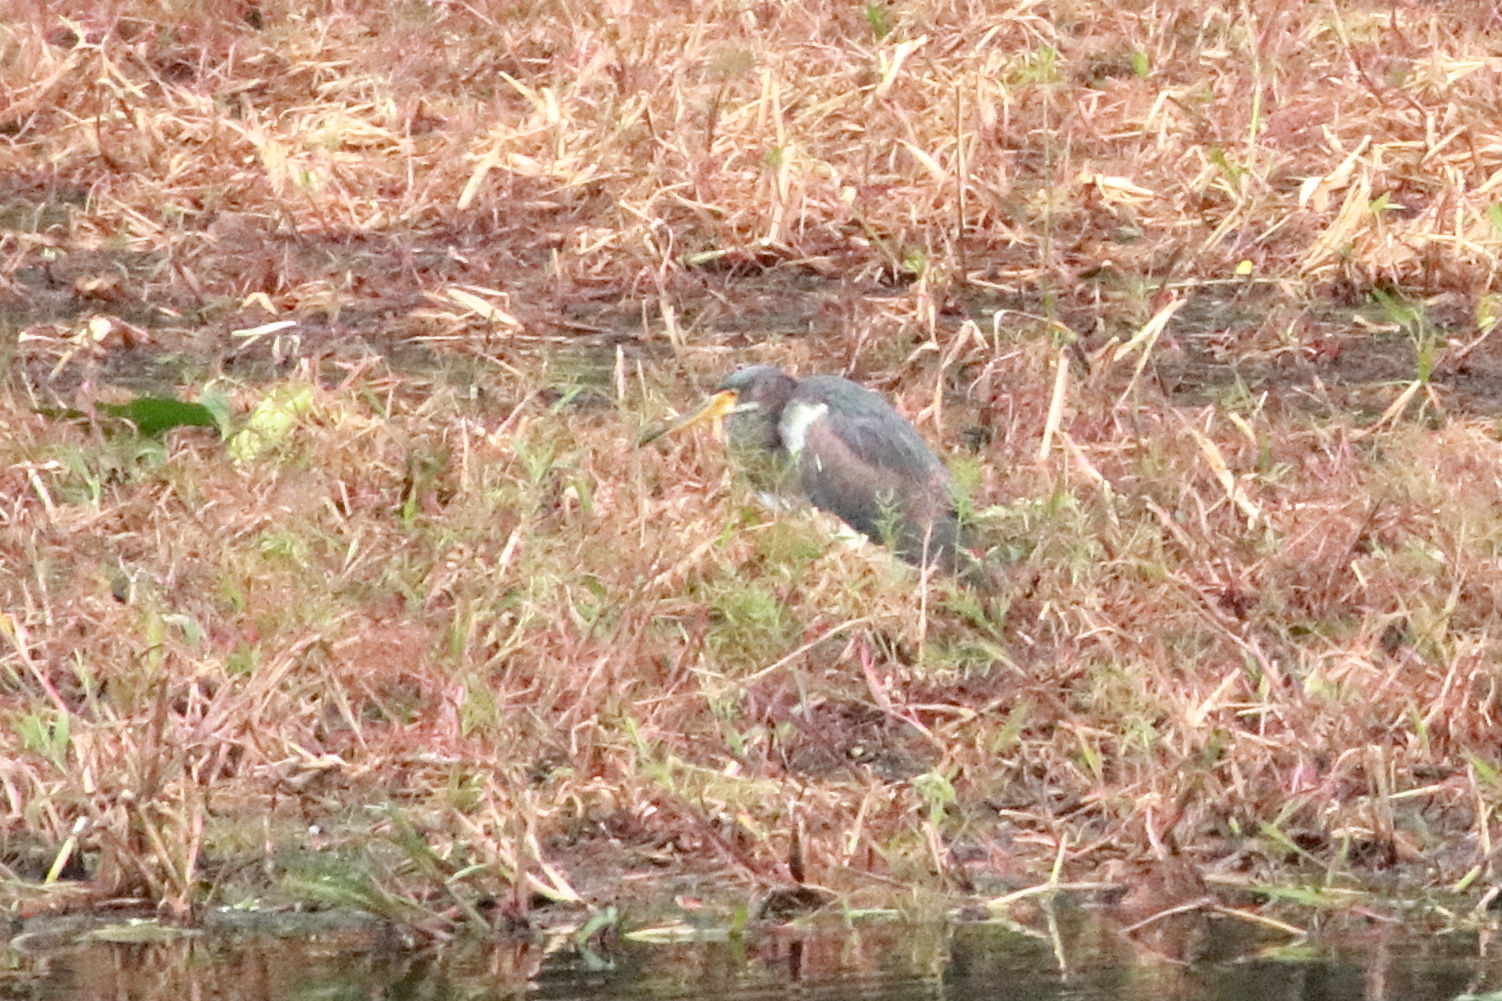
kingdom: Animalia
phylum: Chordata
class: Aves
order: Pelecaniformes
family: Ardeidae
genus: Egretta
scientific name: Egretta tricolor
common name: Tricolored heron
